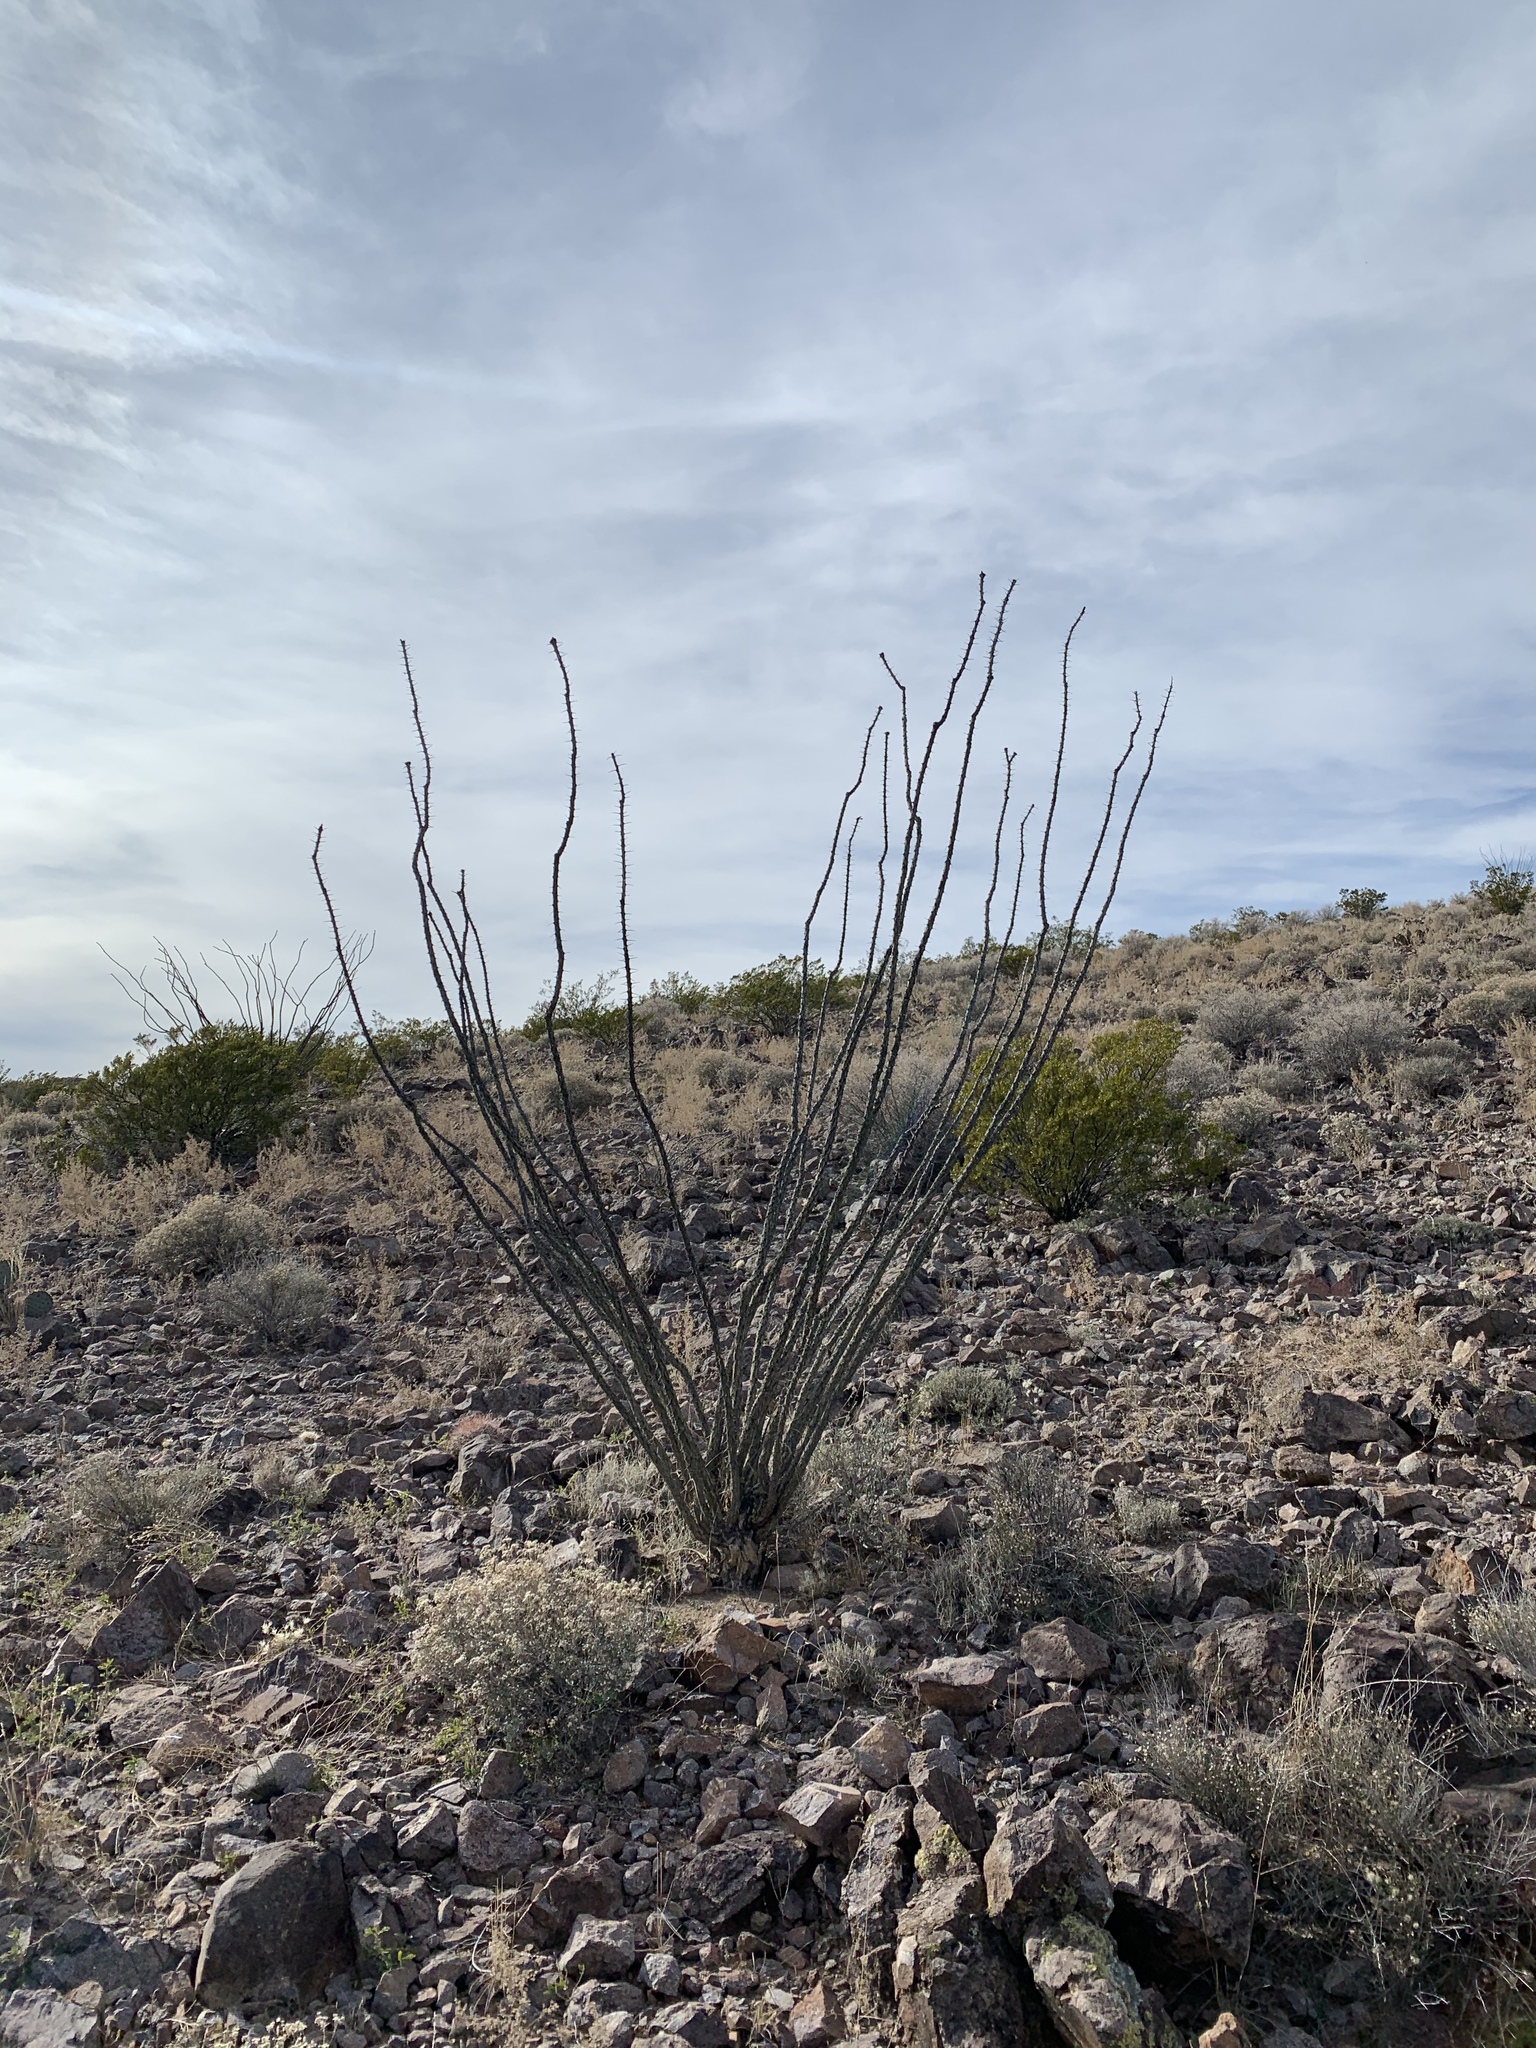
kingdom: Plantae
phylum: Tracheophyta
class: Magnoliopsida
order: Ericales
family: Fouquieriaceae
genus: Fouquieria
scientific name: Fouquieria splendens
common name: Vine-cactus
